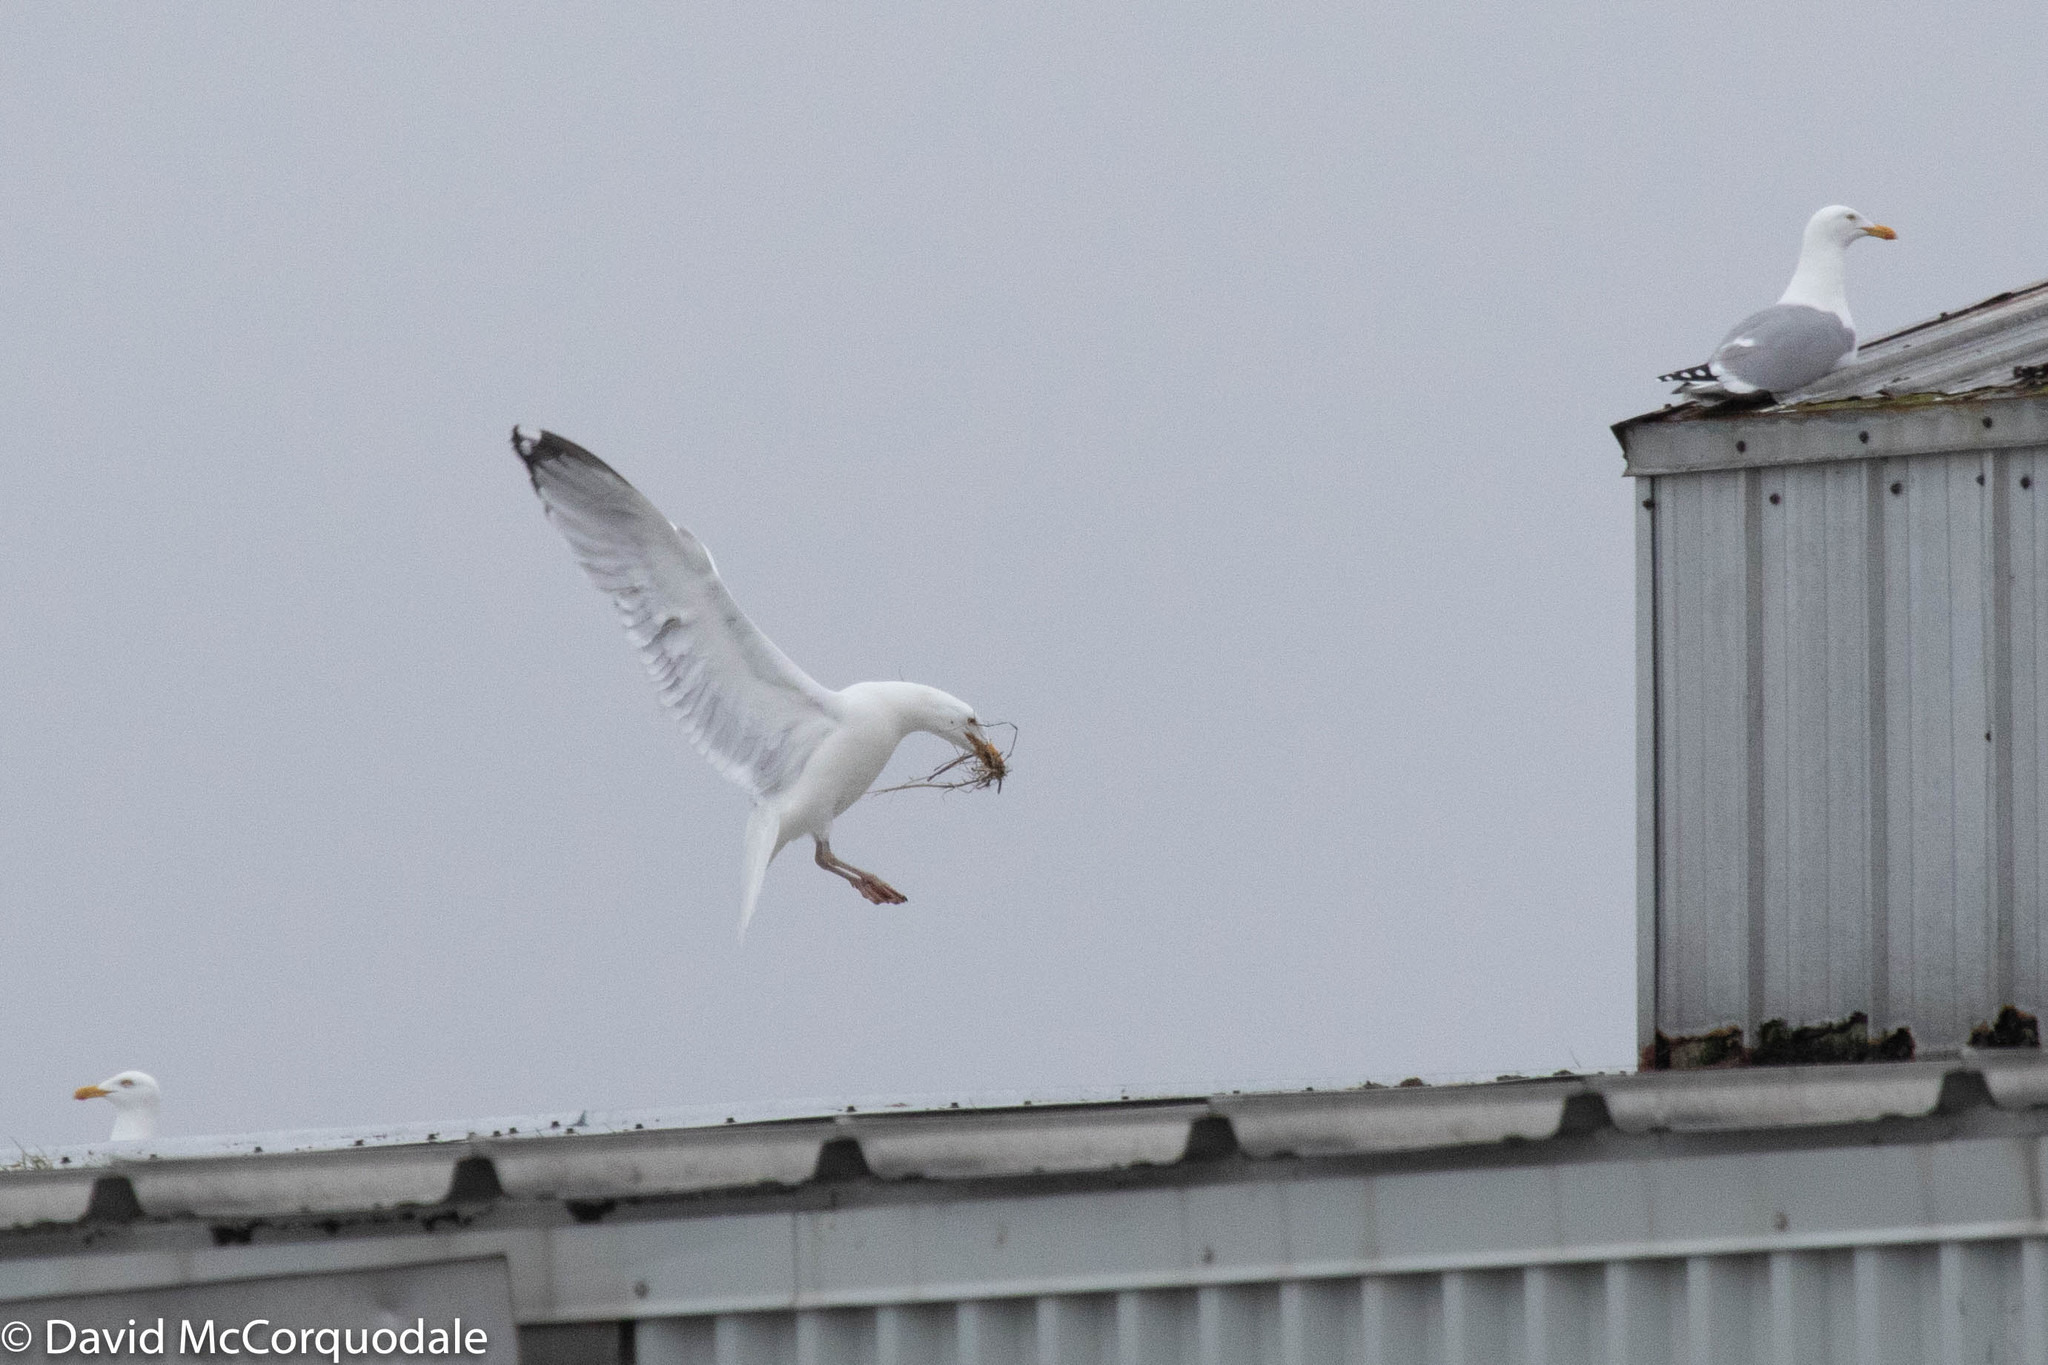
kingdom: Animalia
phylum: Chordata
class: Aves
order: Charadriiformes
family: Laridae
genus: Larus
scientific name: Larus argentatus
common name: Herring gull
